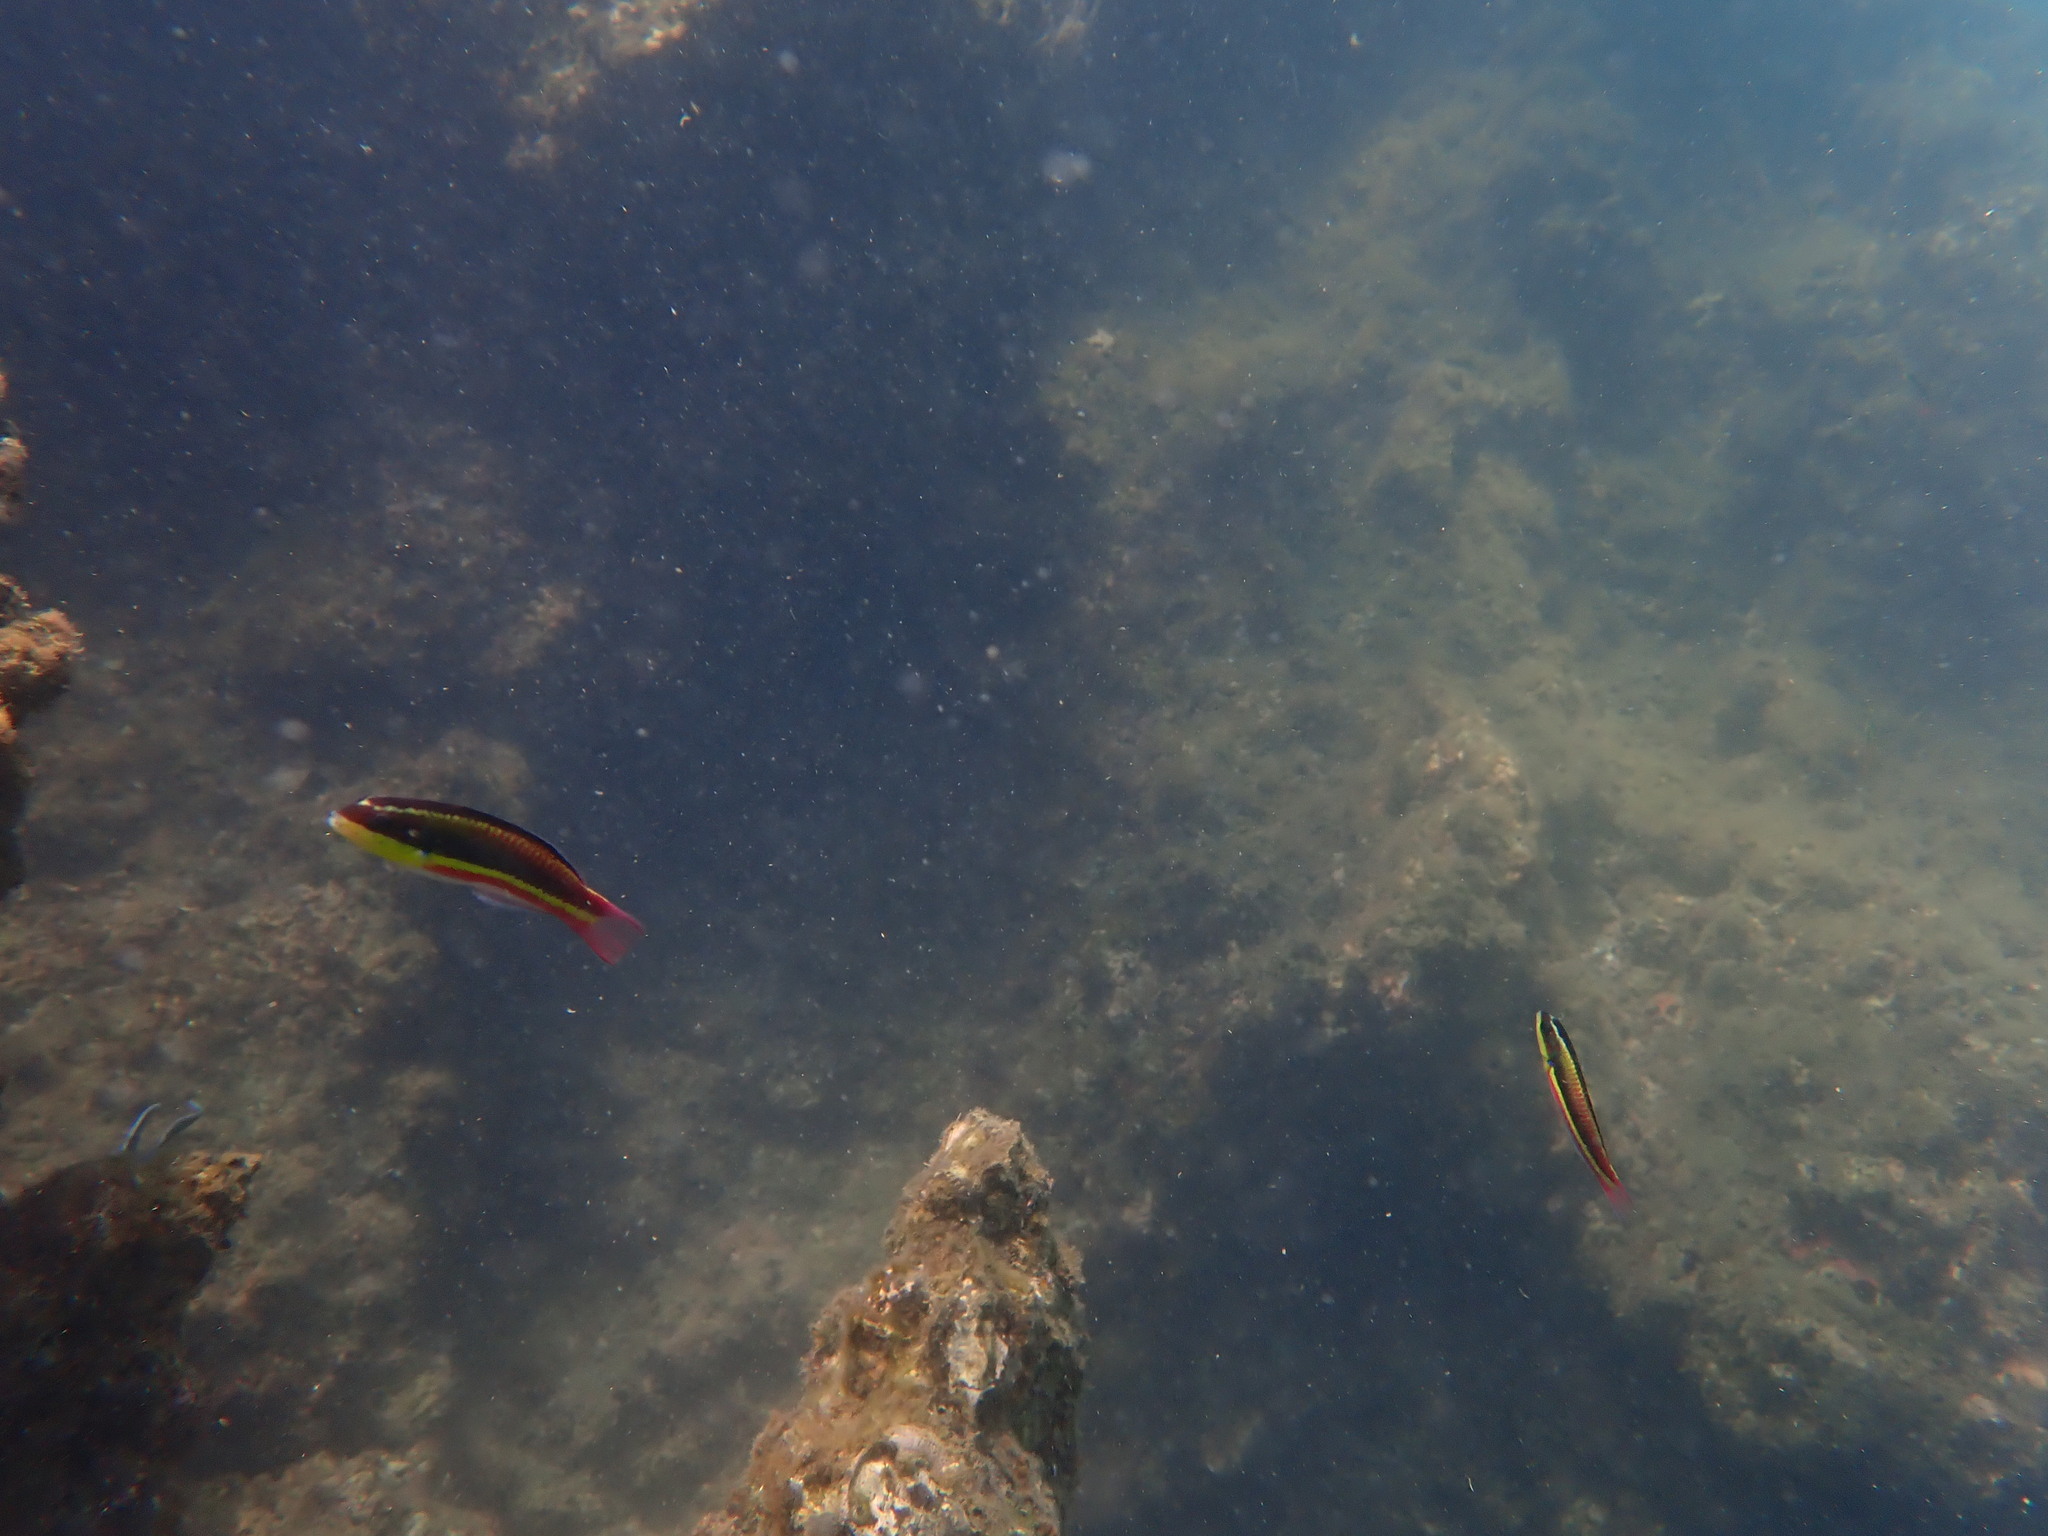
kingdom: Animalia
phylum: Chordata
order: Perciformes
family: Labridae
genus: Thalassoma
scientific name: Thalassoma lucasanum
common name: Cortez rainbow wrasse
